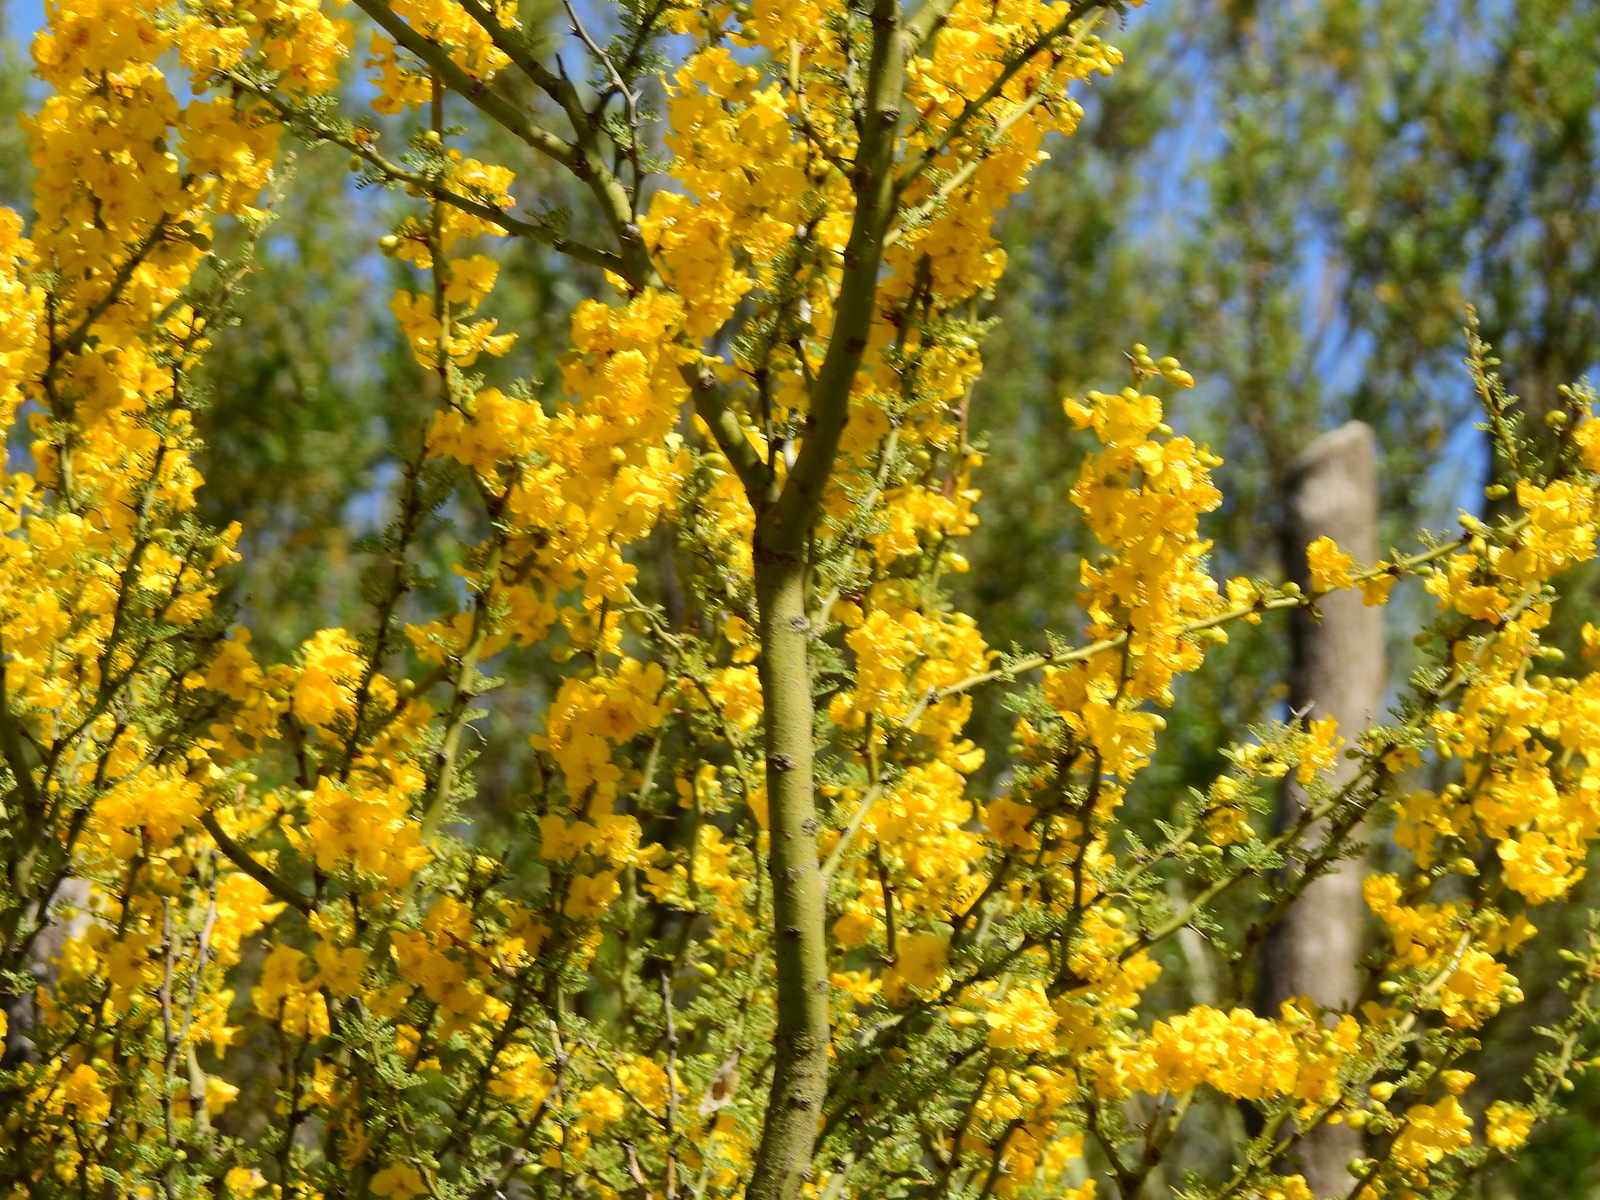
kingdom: Plantae
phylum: Tracheophyta
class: Magnoliopsida
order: Fabales
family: Fabaceae
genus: Parkinsonia
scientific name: Parkinsonia praecox
